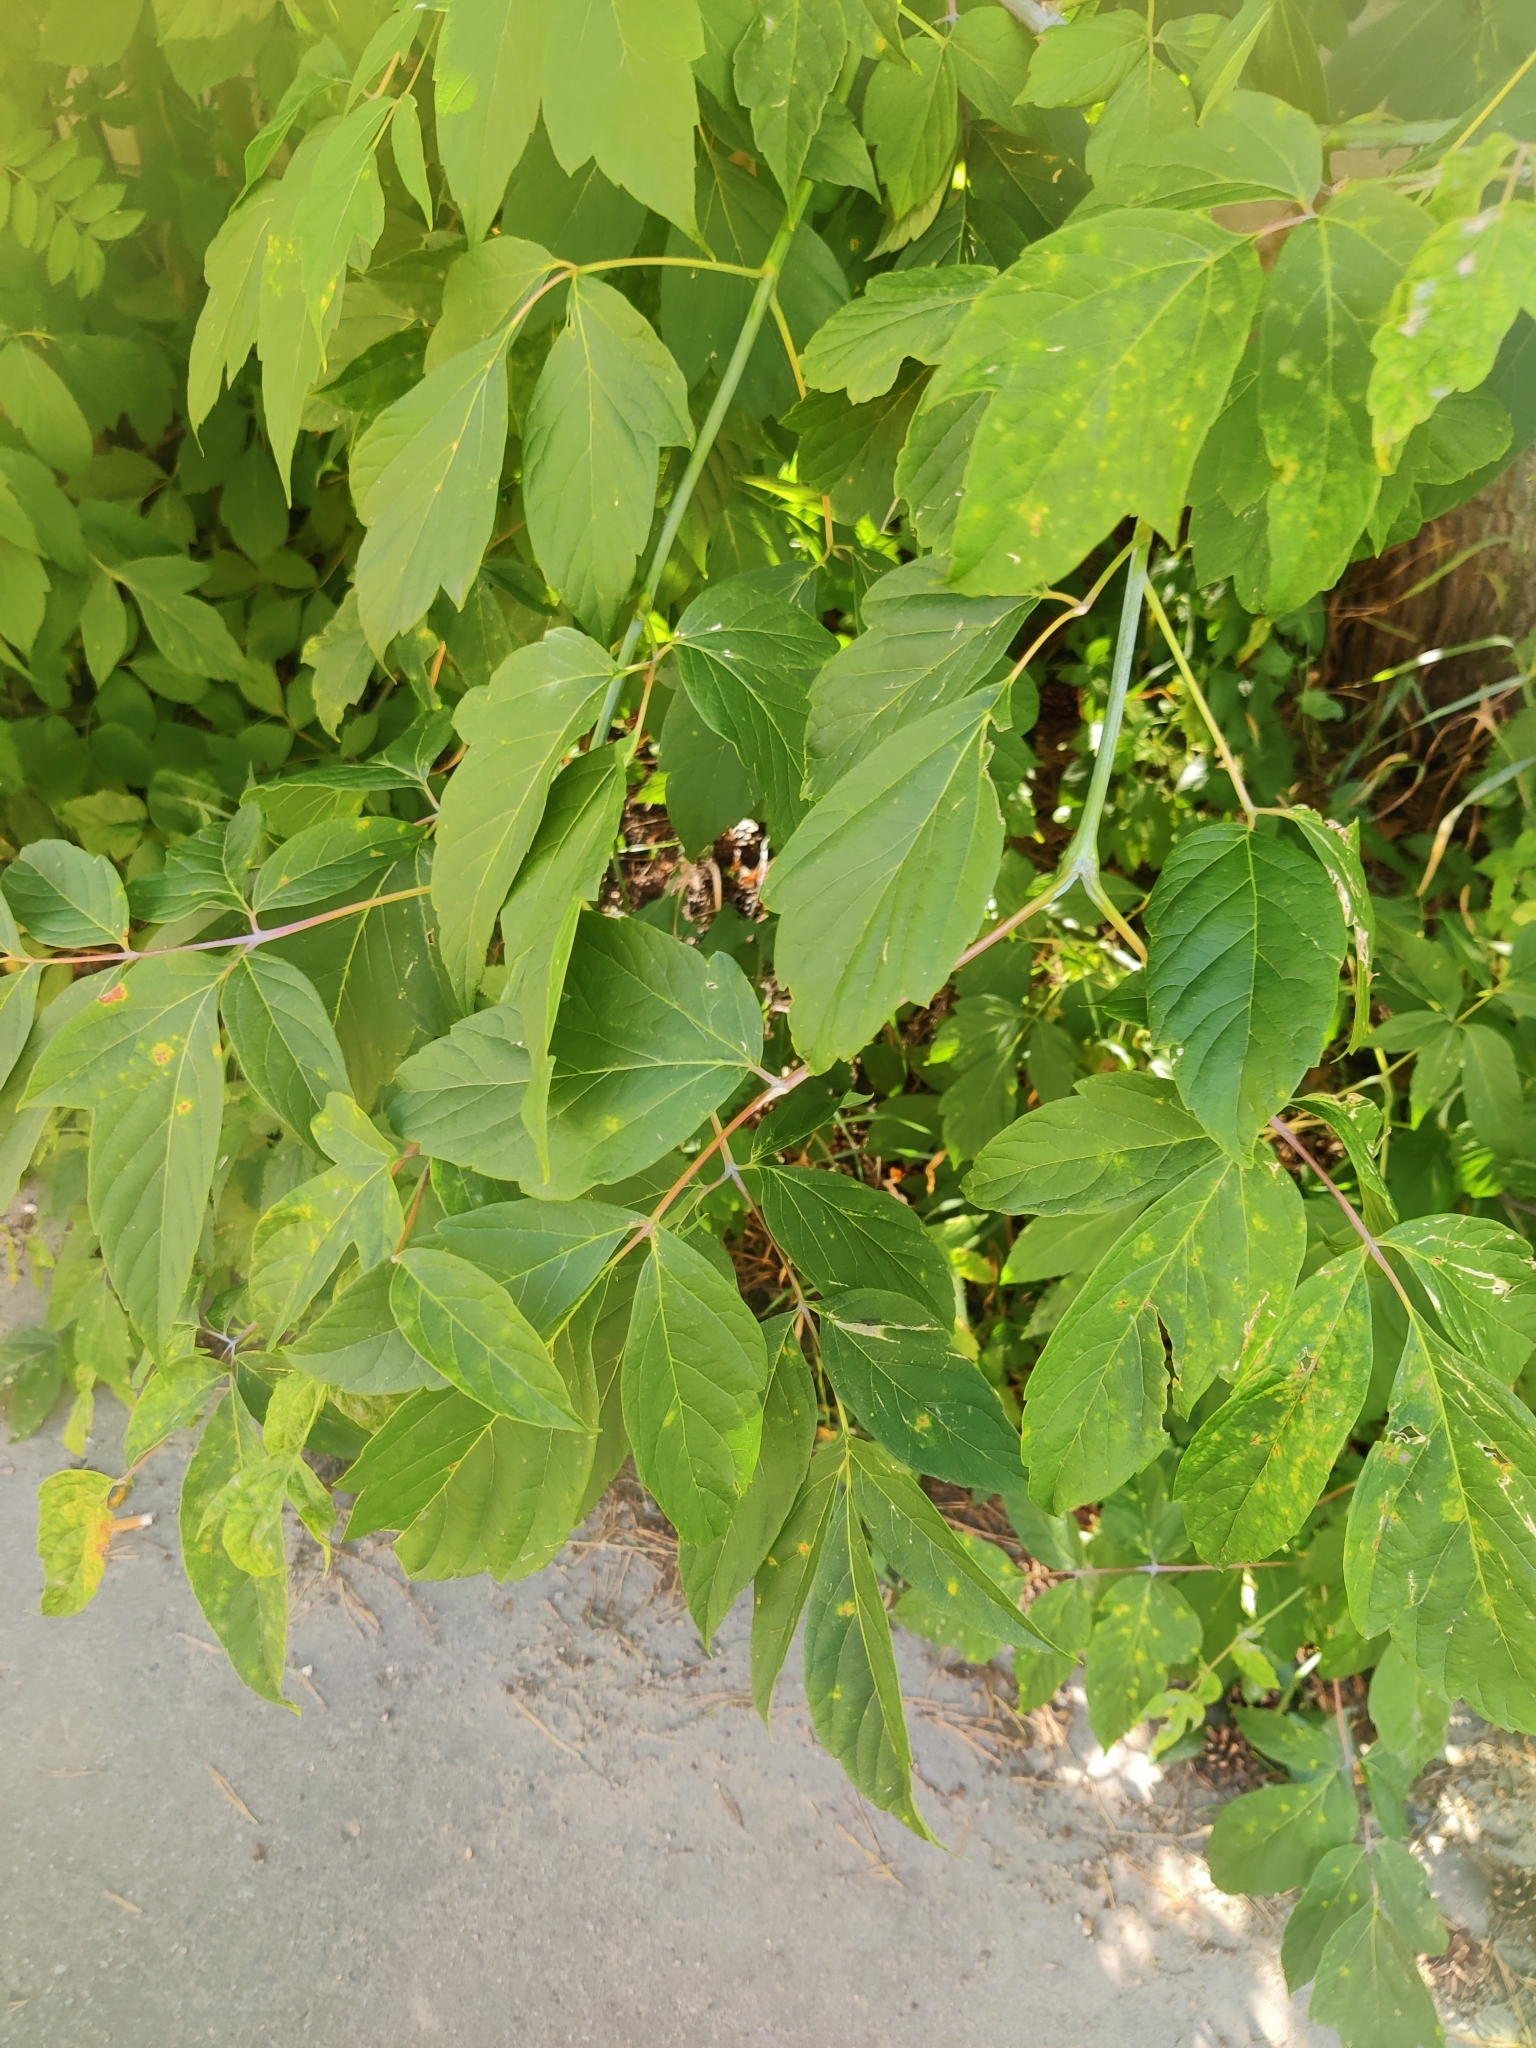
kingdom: Plantae
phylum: Tracheophyta
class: Magnoliopsida
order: Sapindales
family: Sapindaceae
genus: Acer
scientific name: Acer negundo
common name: Ashleaf maple
